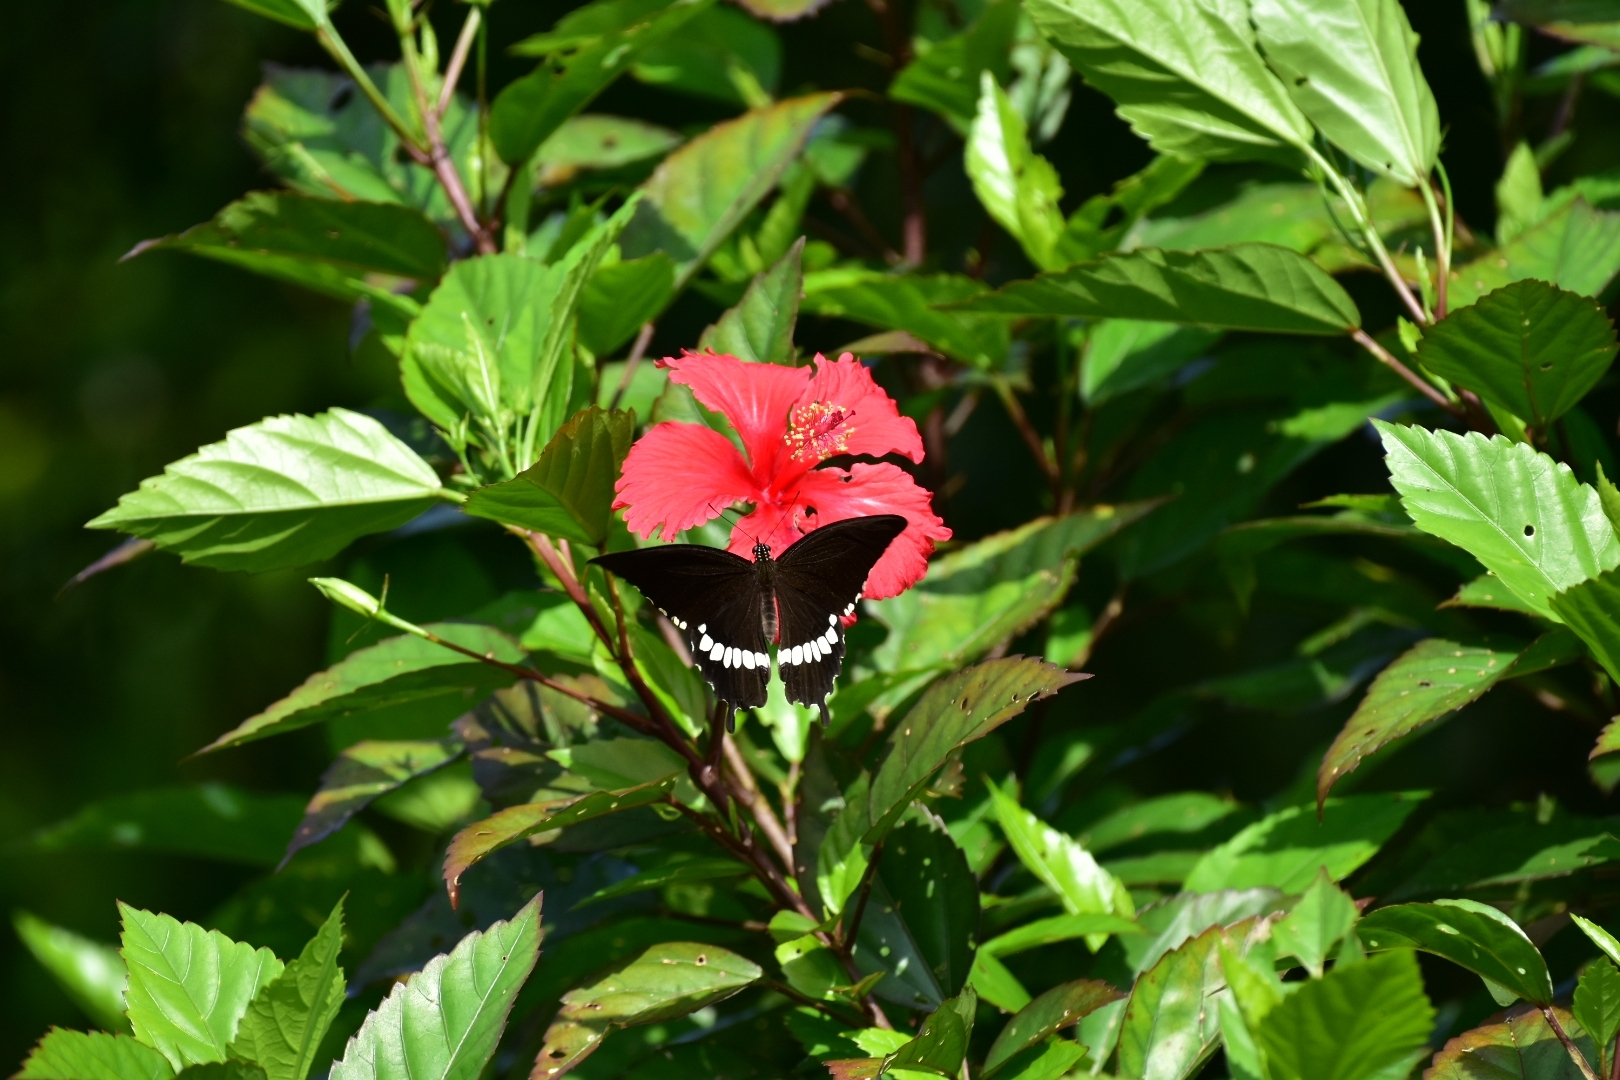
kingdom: Animalia
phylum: Arthropoda
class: Insecta
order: Lepidoptera
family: Papilionidae
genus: Papilio
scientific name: Papilio polytes
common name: Common mormon
